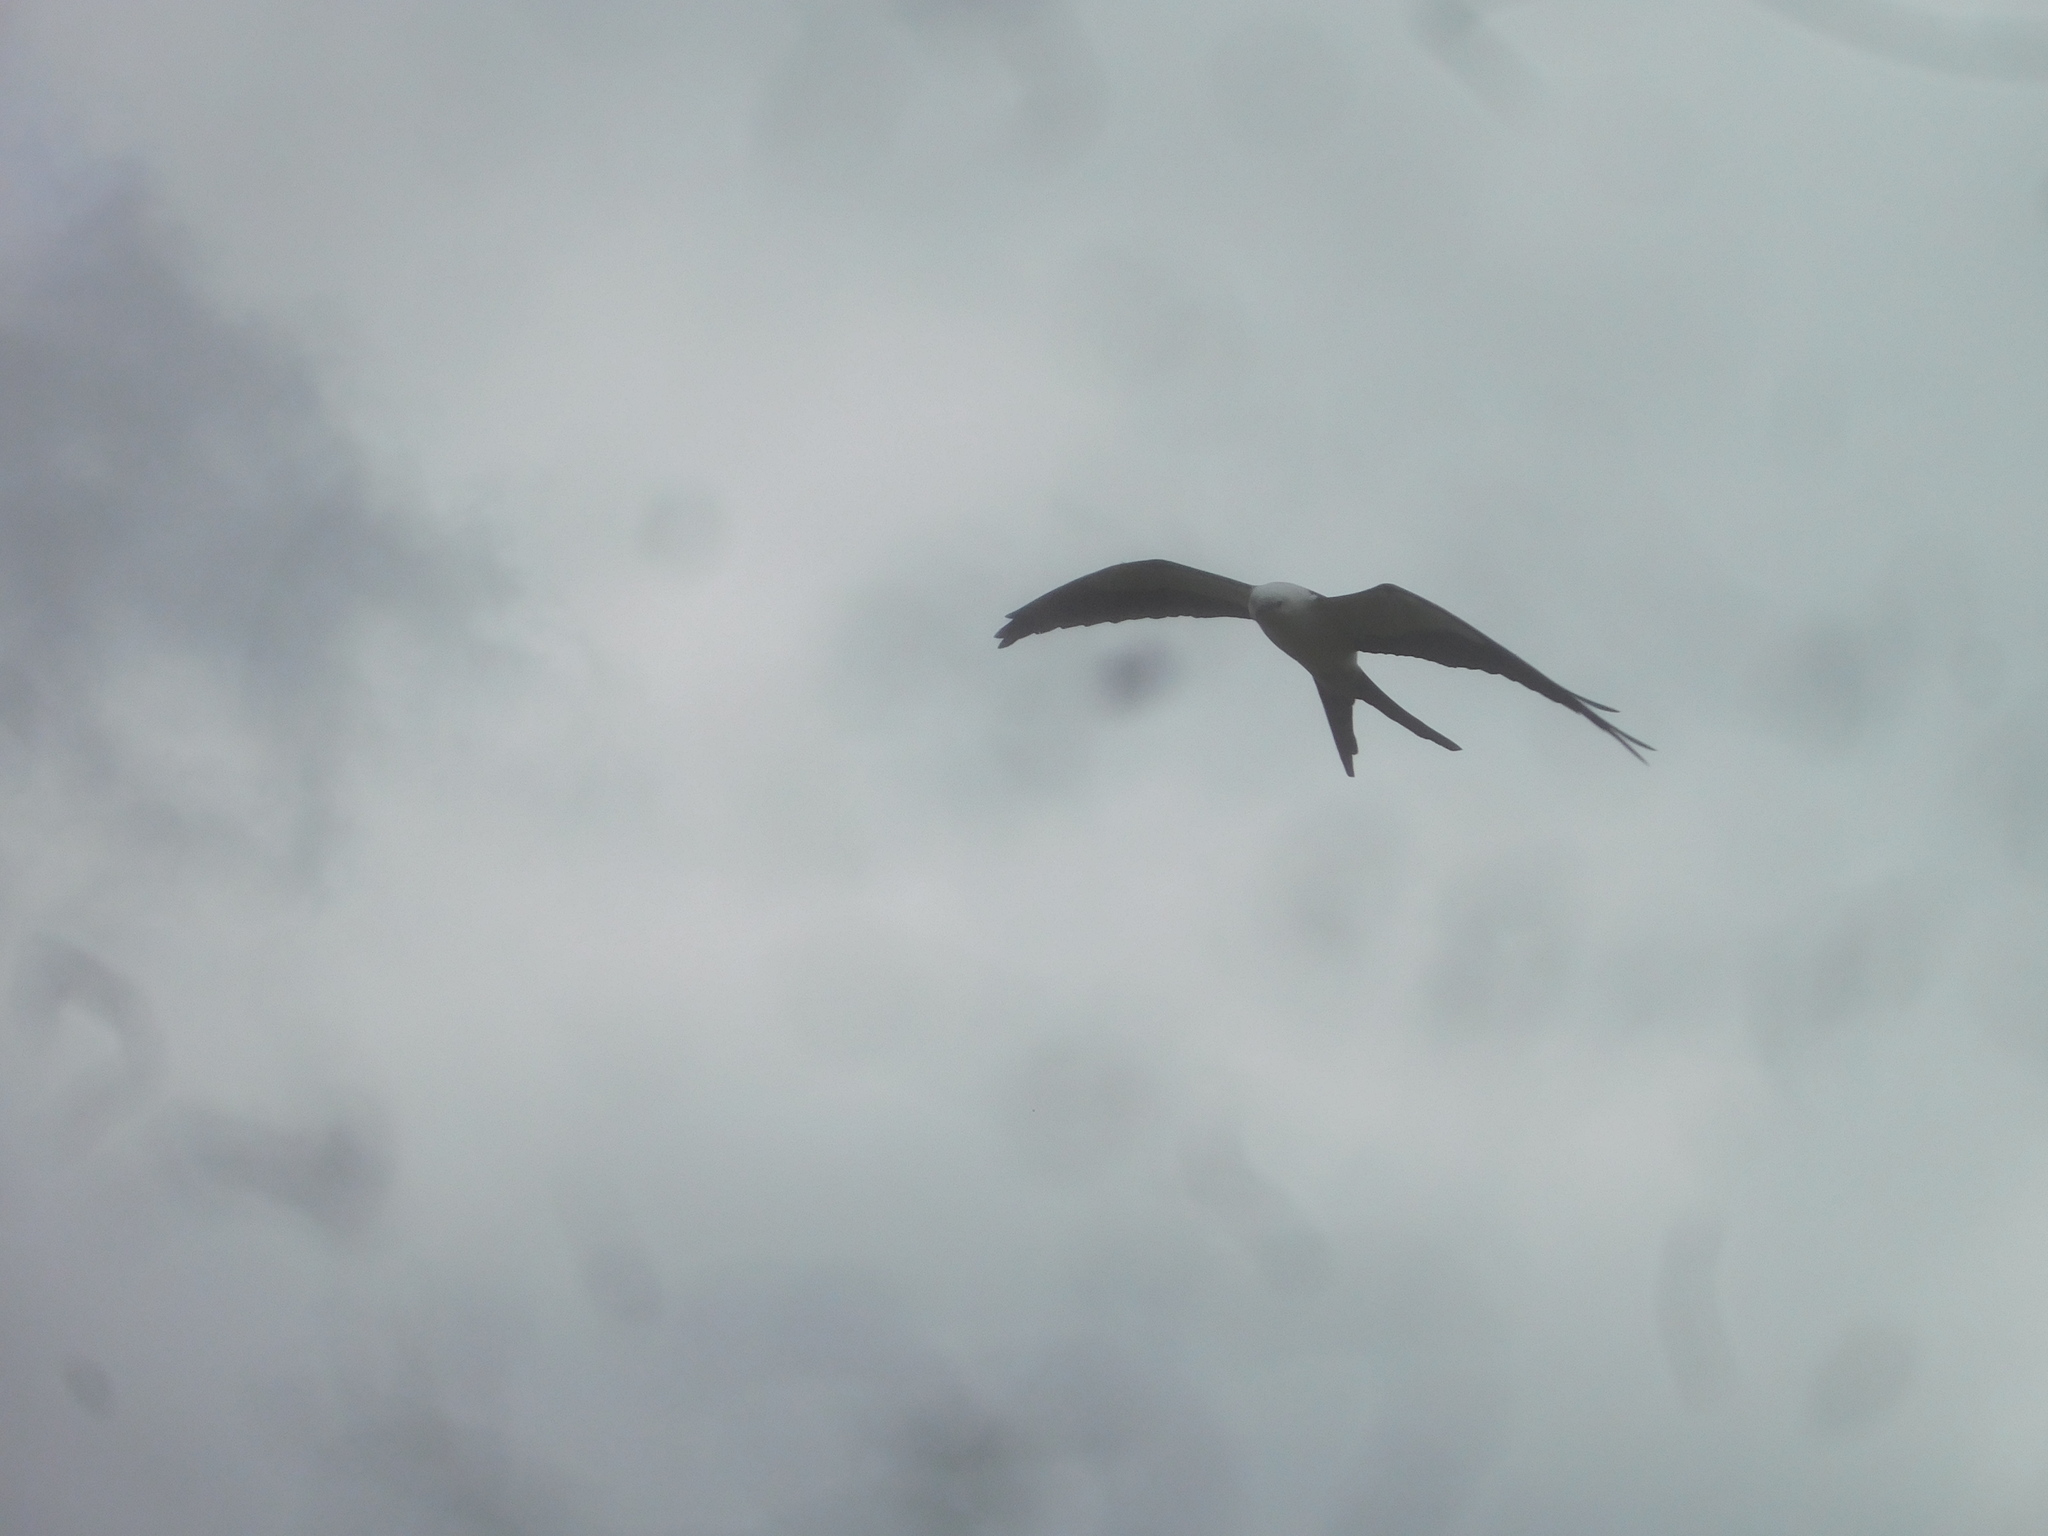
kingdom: Animalia
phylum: Chordata
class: Aves
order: Accipitriformes
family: Accipitridae
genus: Elanoides
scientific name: Elanoides forficatus
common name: Swallow-tailed kite
